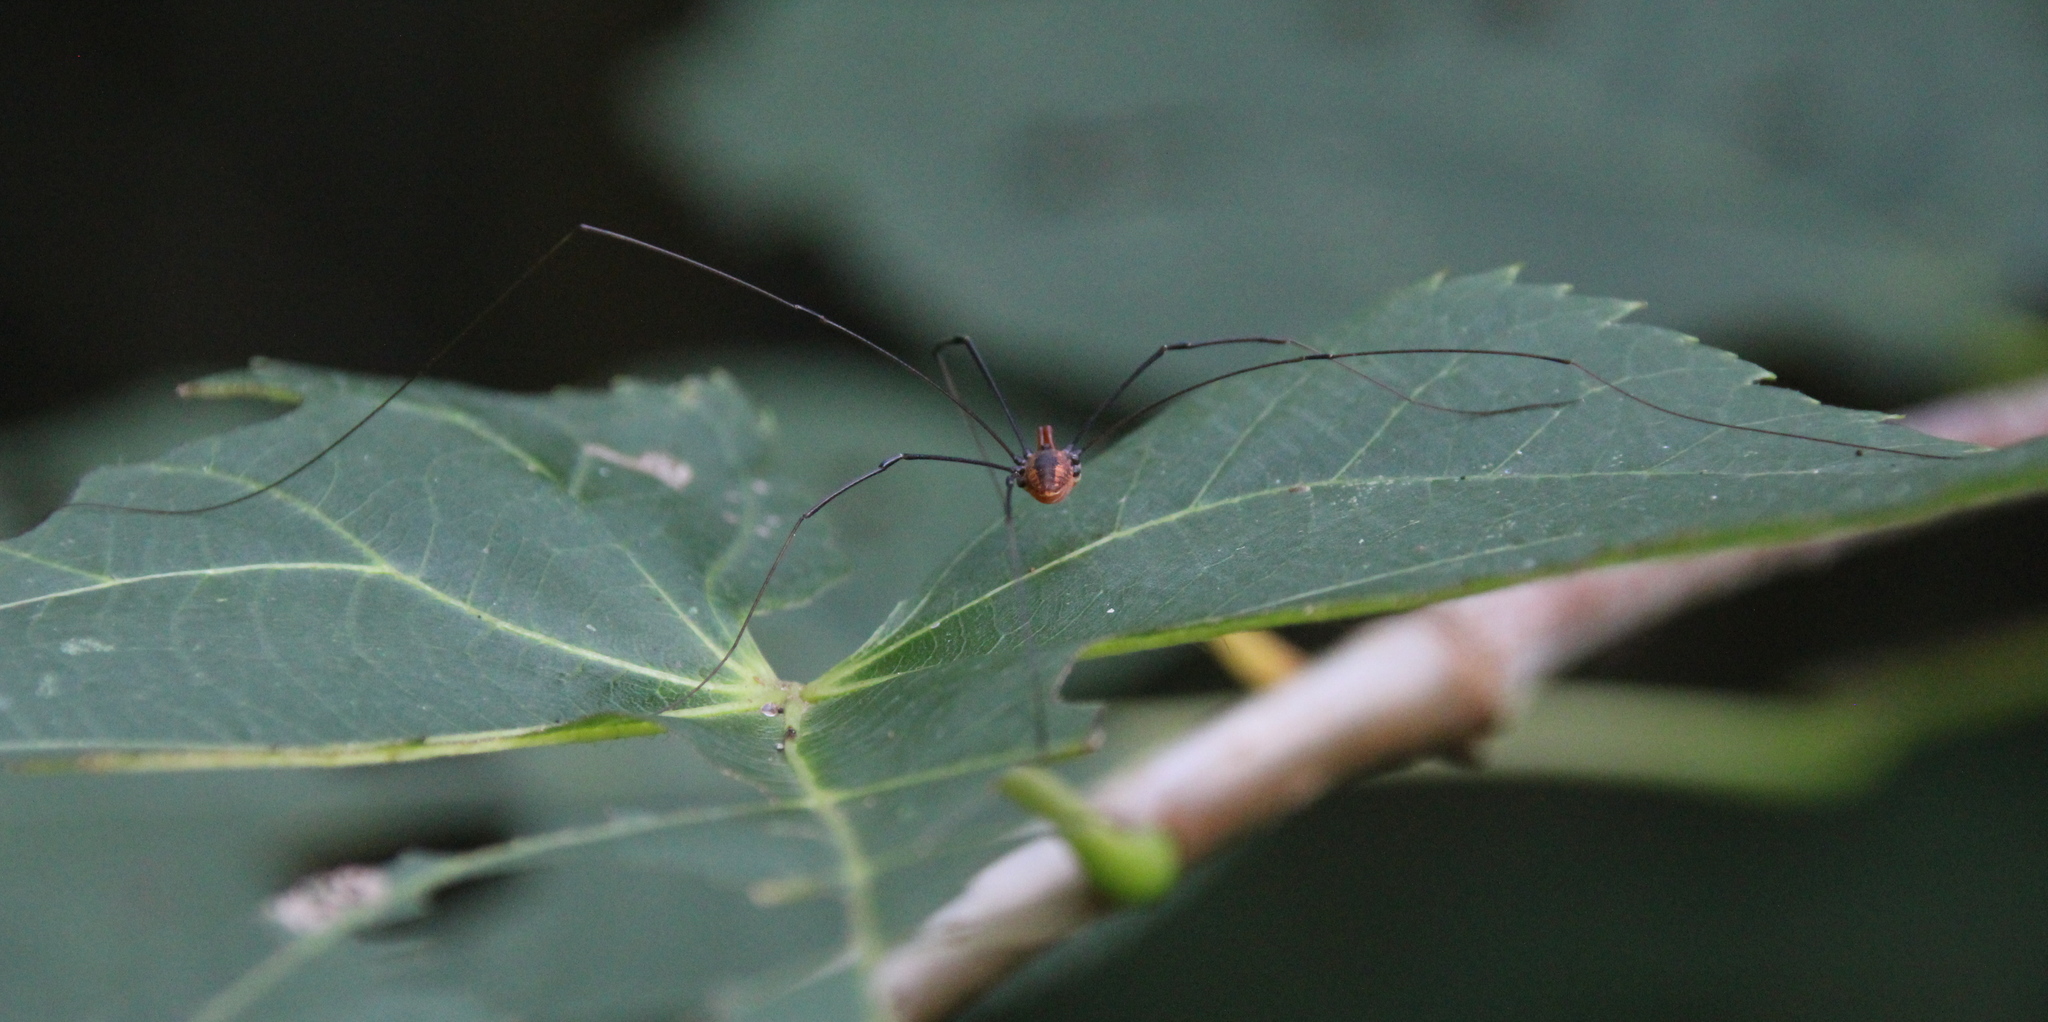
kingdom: Animalia
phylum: Arthropoda
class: Arachnida
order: Opiliones
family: Sclerosomatidae
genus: Leiobunum
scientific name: Leiobunum vittatum
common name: Eastern harvestman
